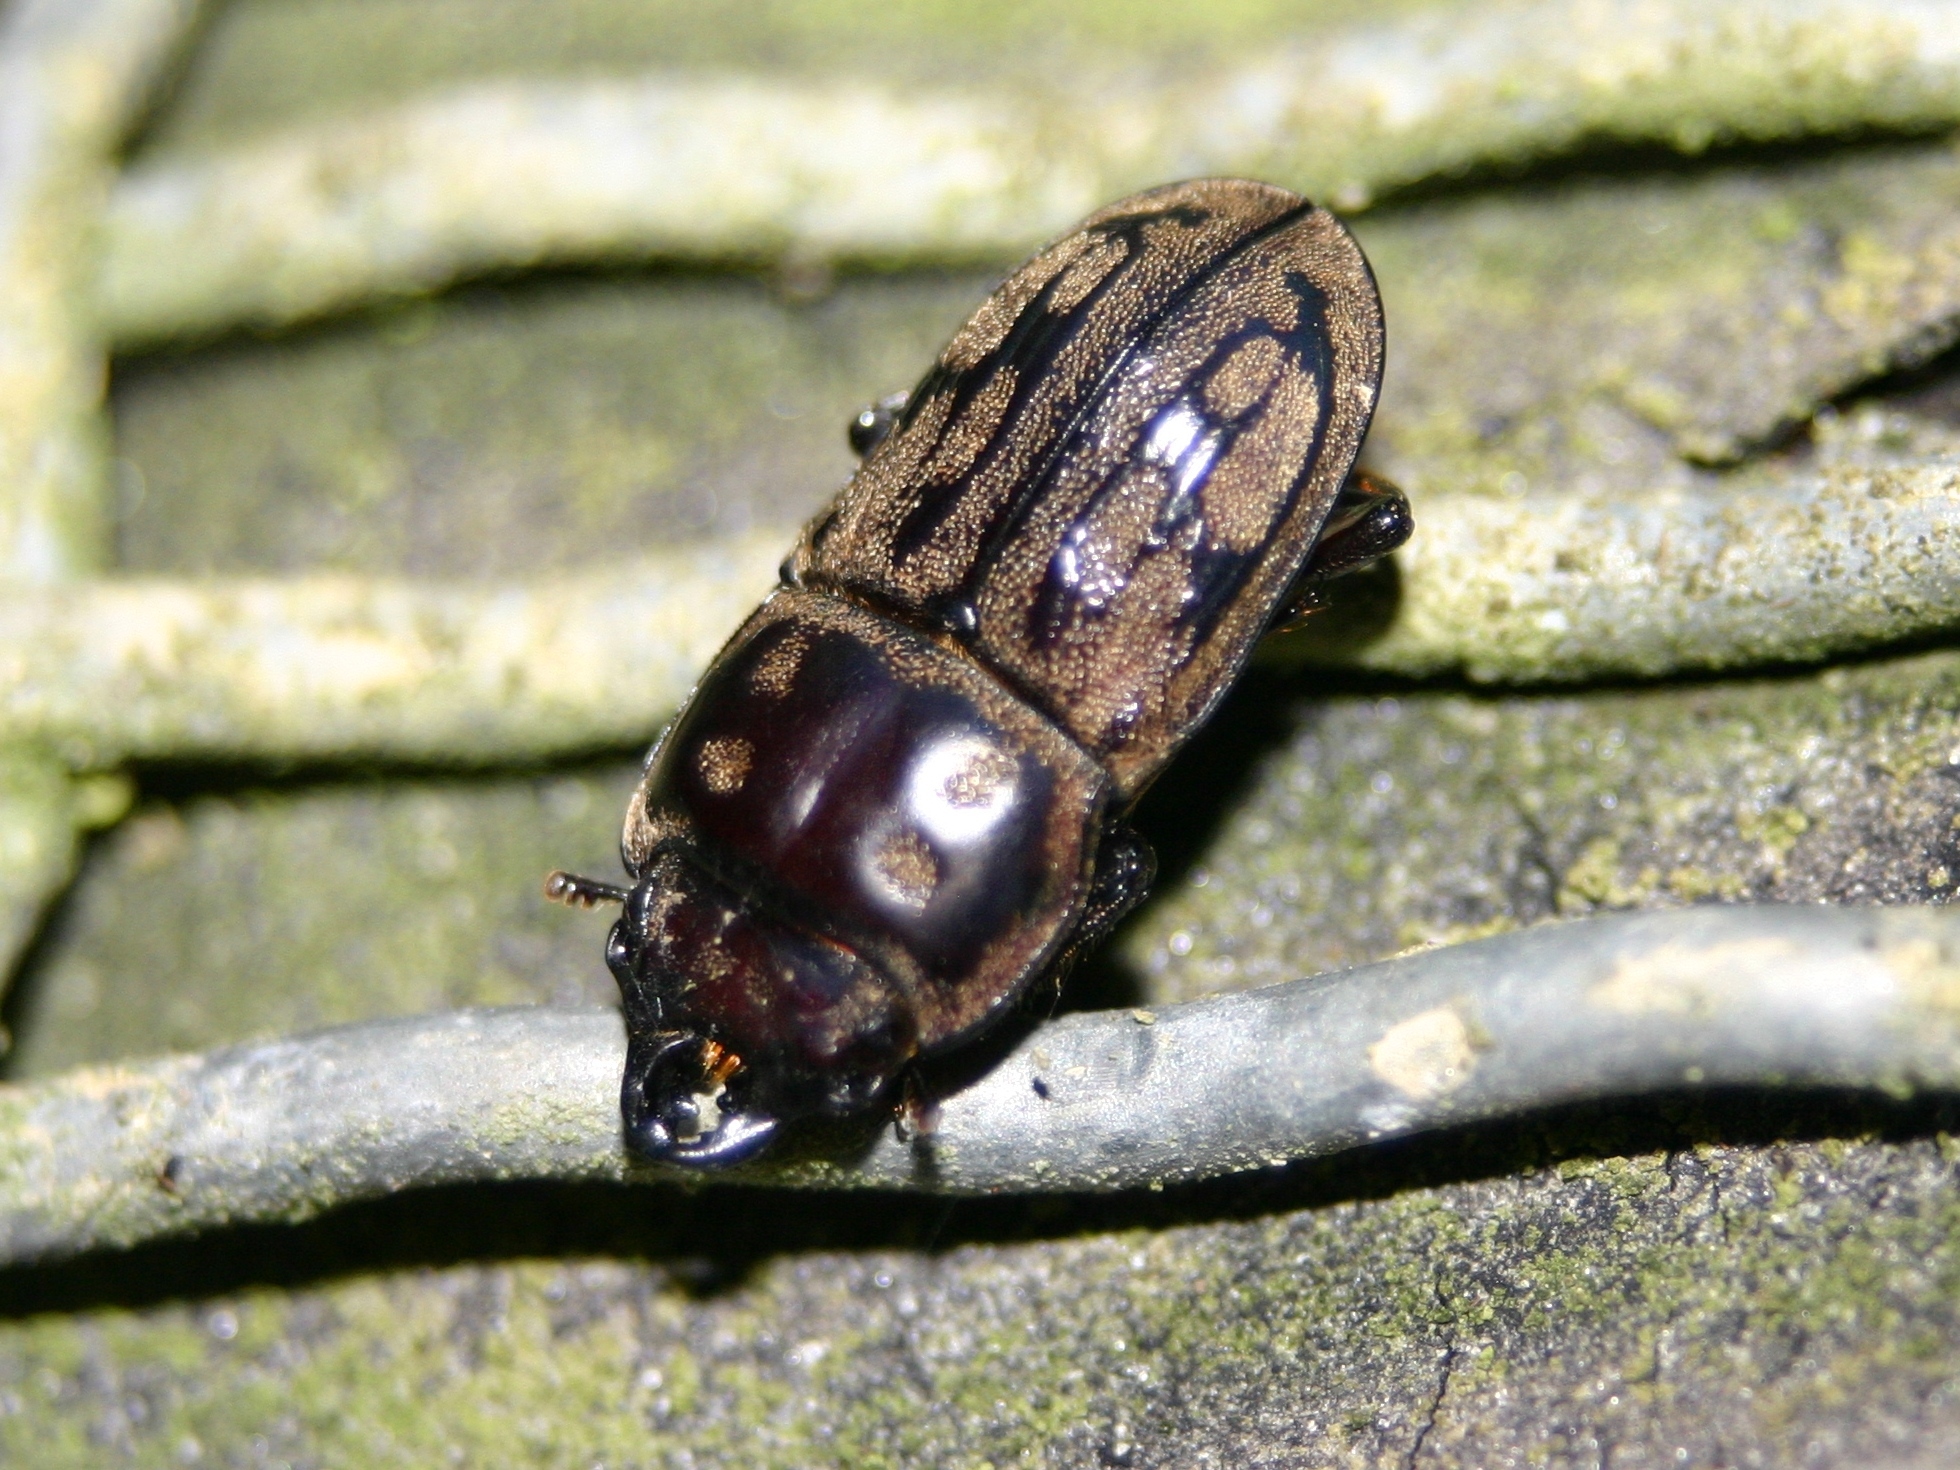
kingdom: Animalia
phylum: Arthropoda
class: Insecta
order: Coleoptera
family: Lucanidae
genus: Paralissotes
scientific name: Paralissotes reticulatus
